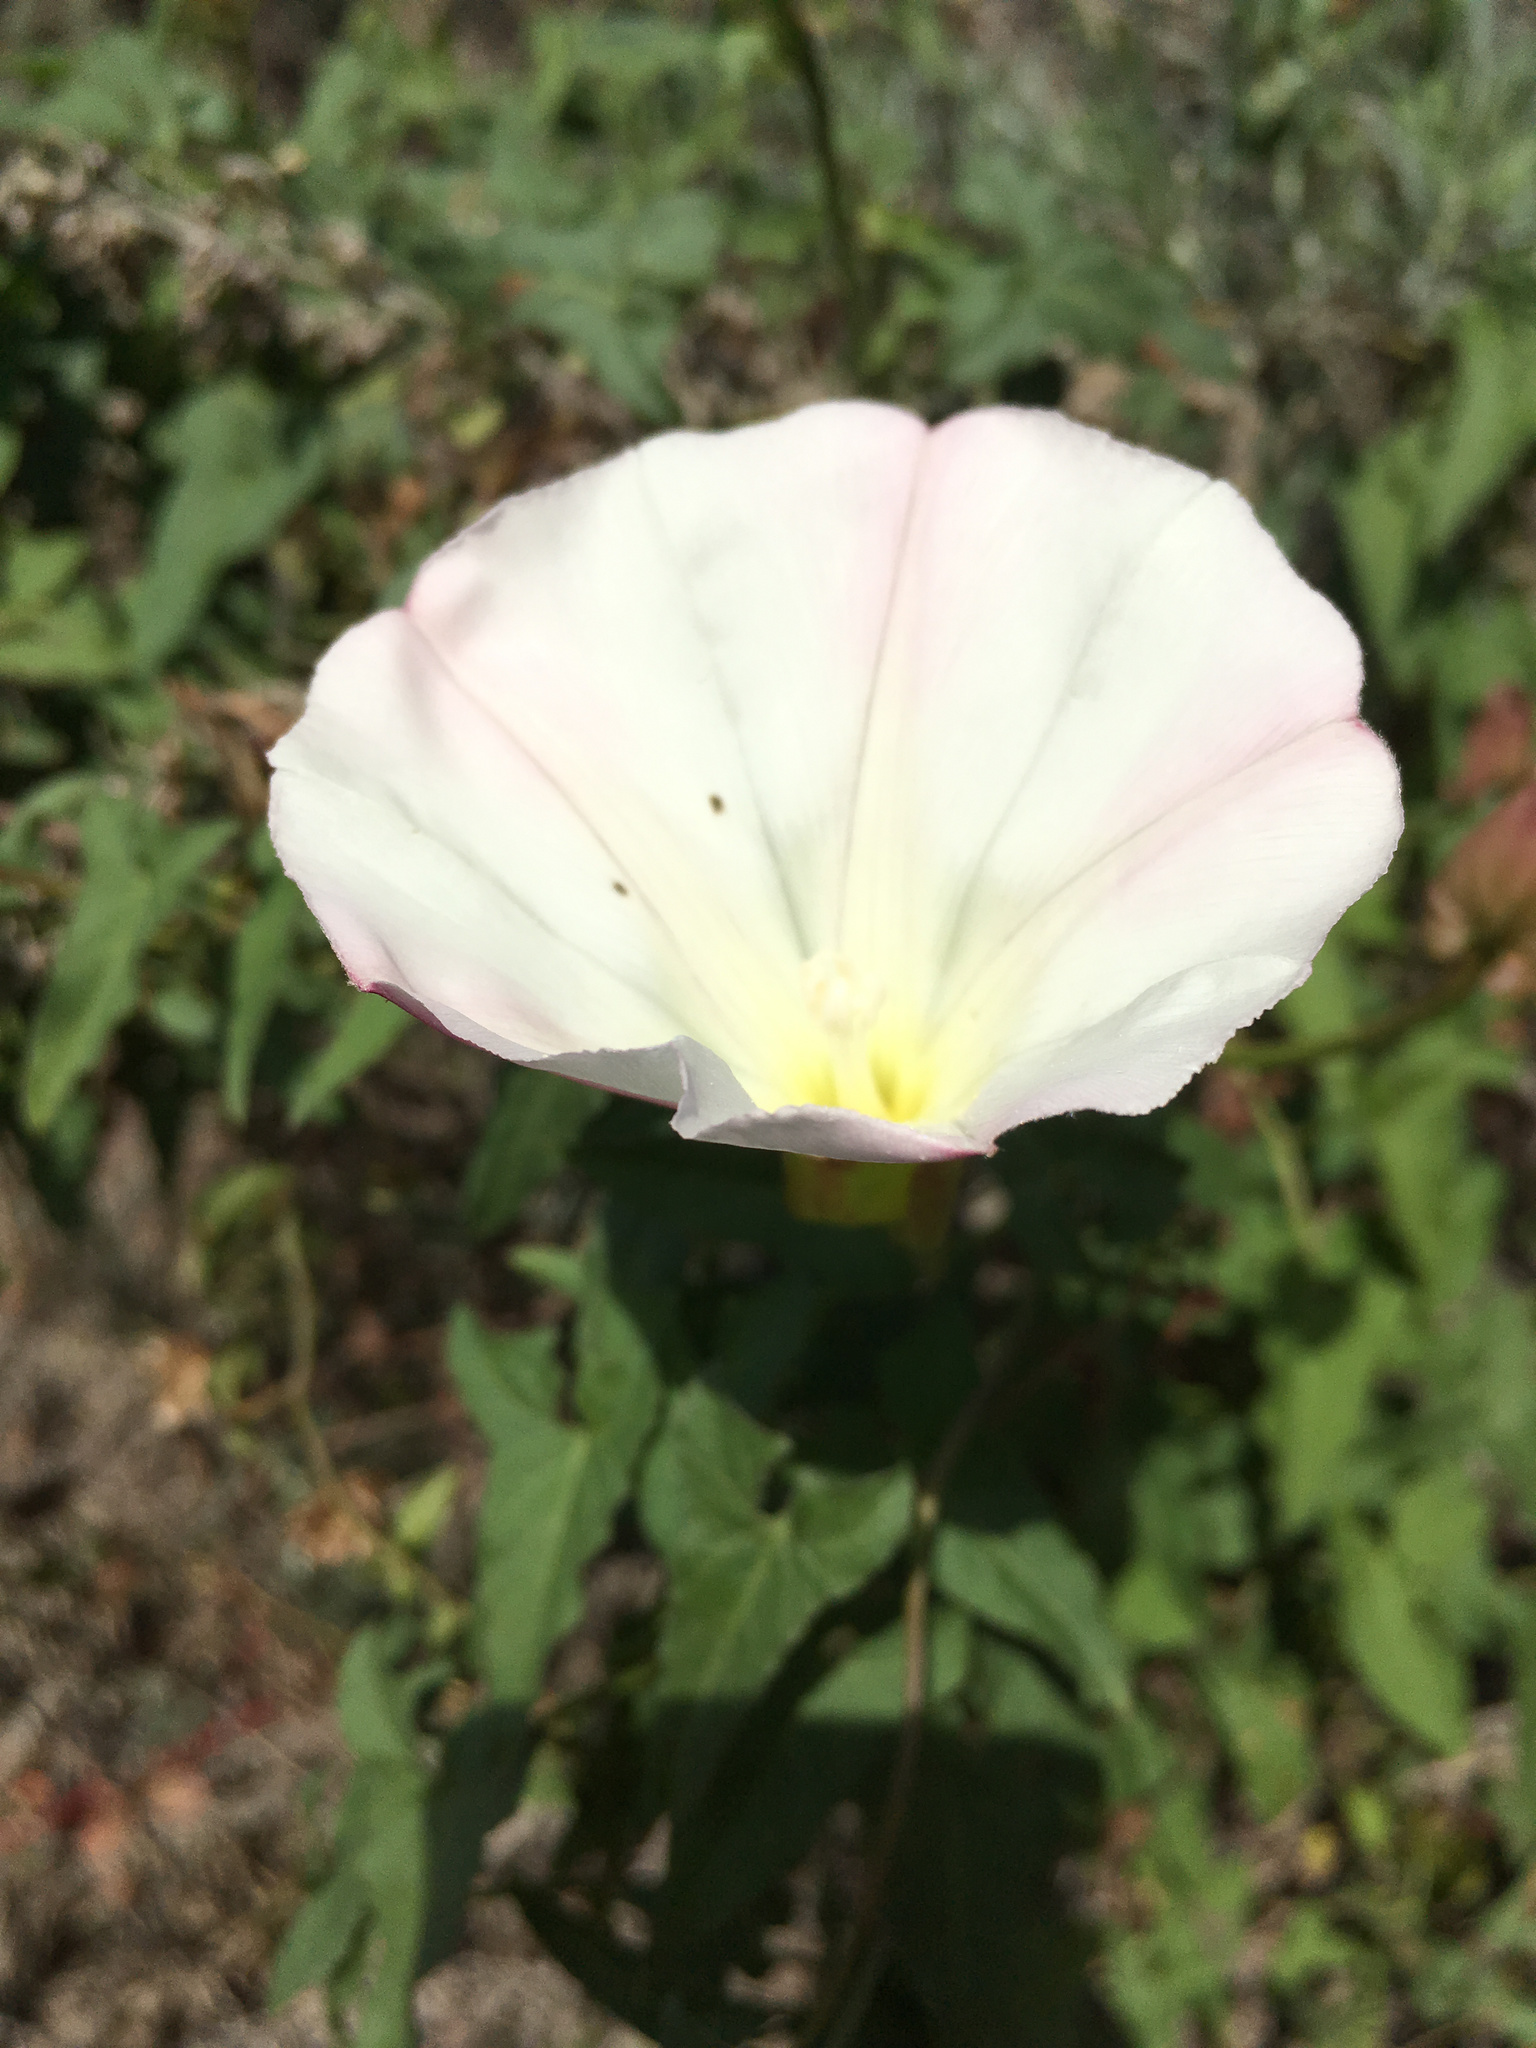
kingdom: Plantae
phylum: Tracheophyta
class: Magnoliopsida
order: Solanales
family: Convolvulaceae
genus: Calystegia
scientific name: Calystegia macrostegia
